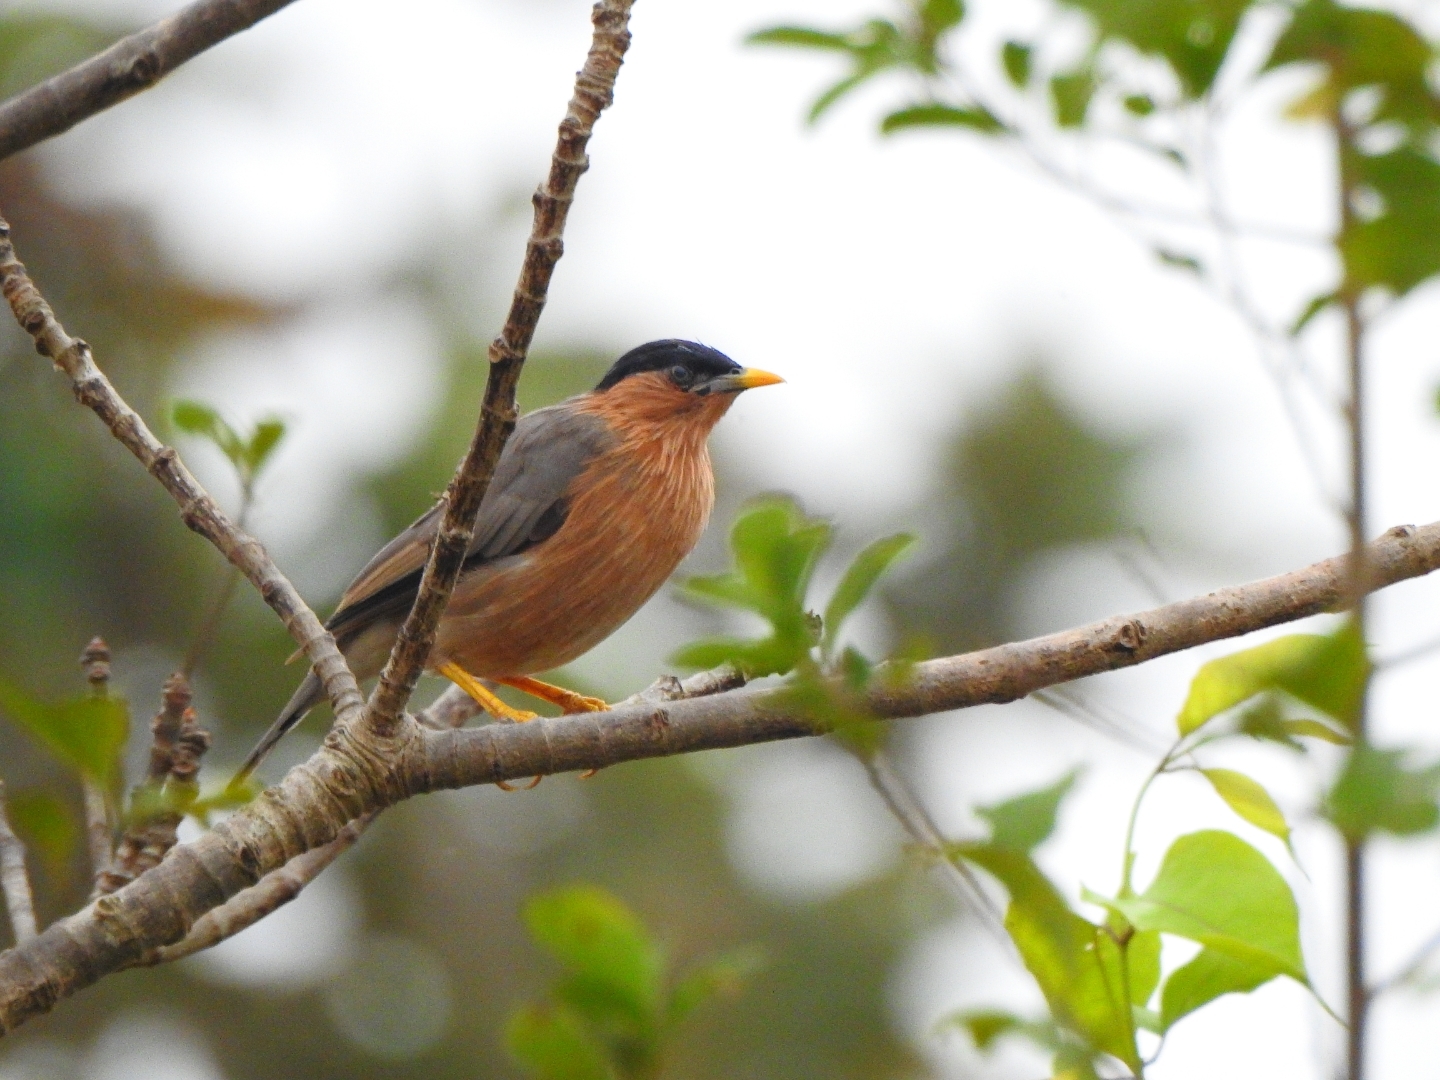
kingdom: Animalia
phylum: Chordata
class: Aves
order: Passeriformes
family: Sturnidae
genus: Sturnia
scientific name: Sturnia pagodarum
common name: Brahminy starling
